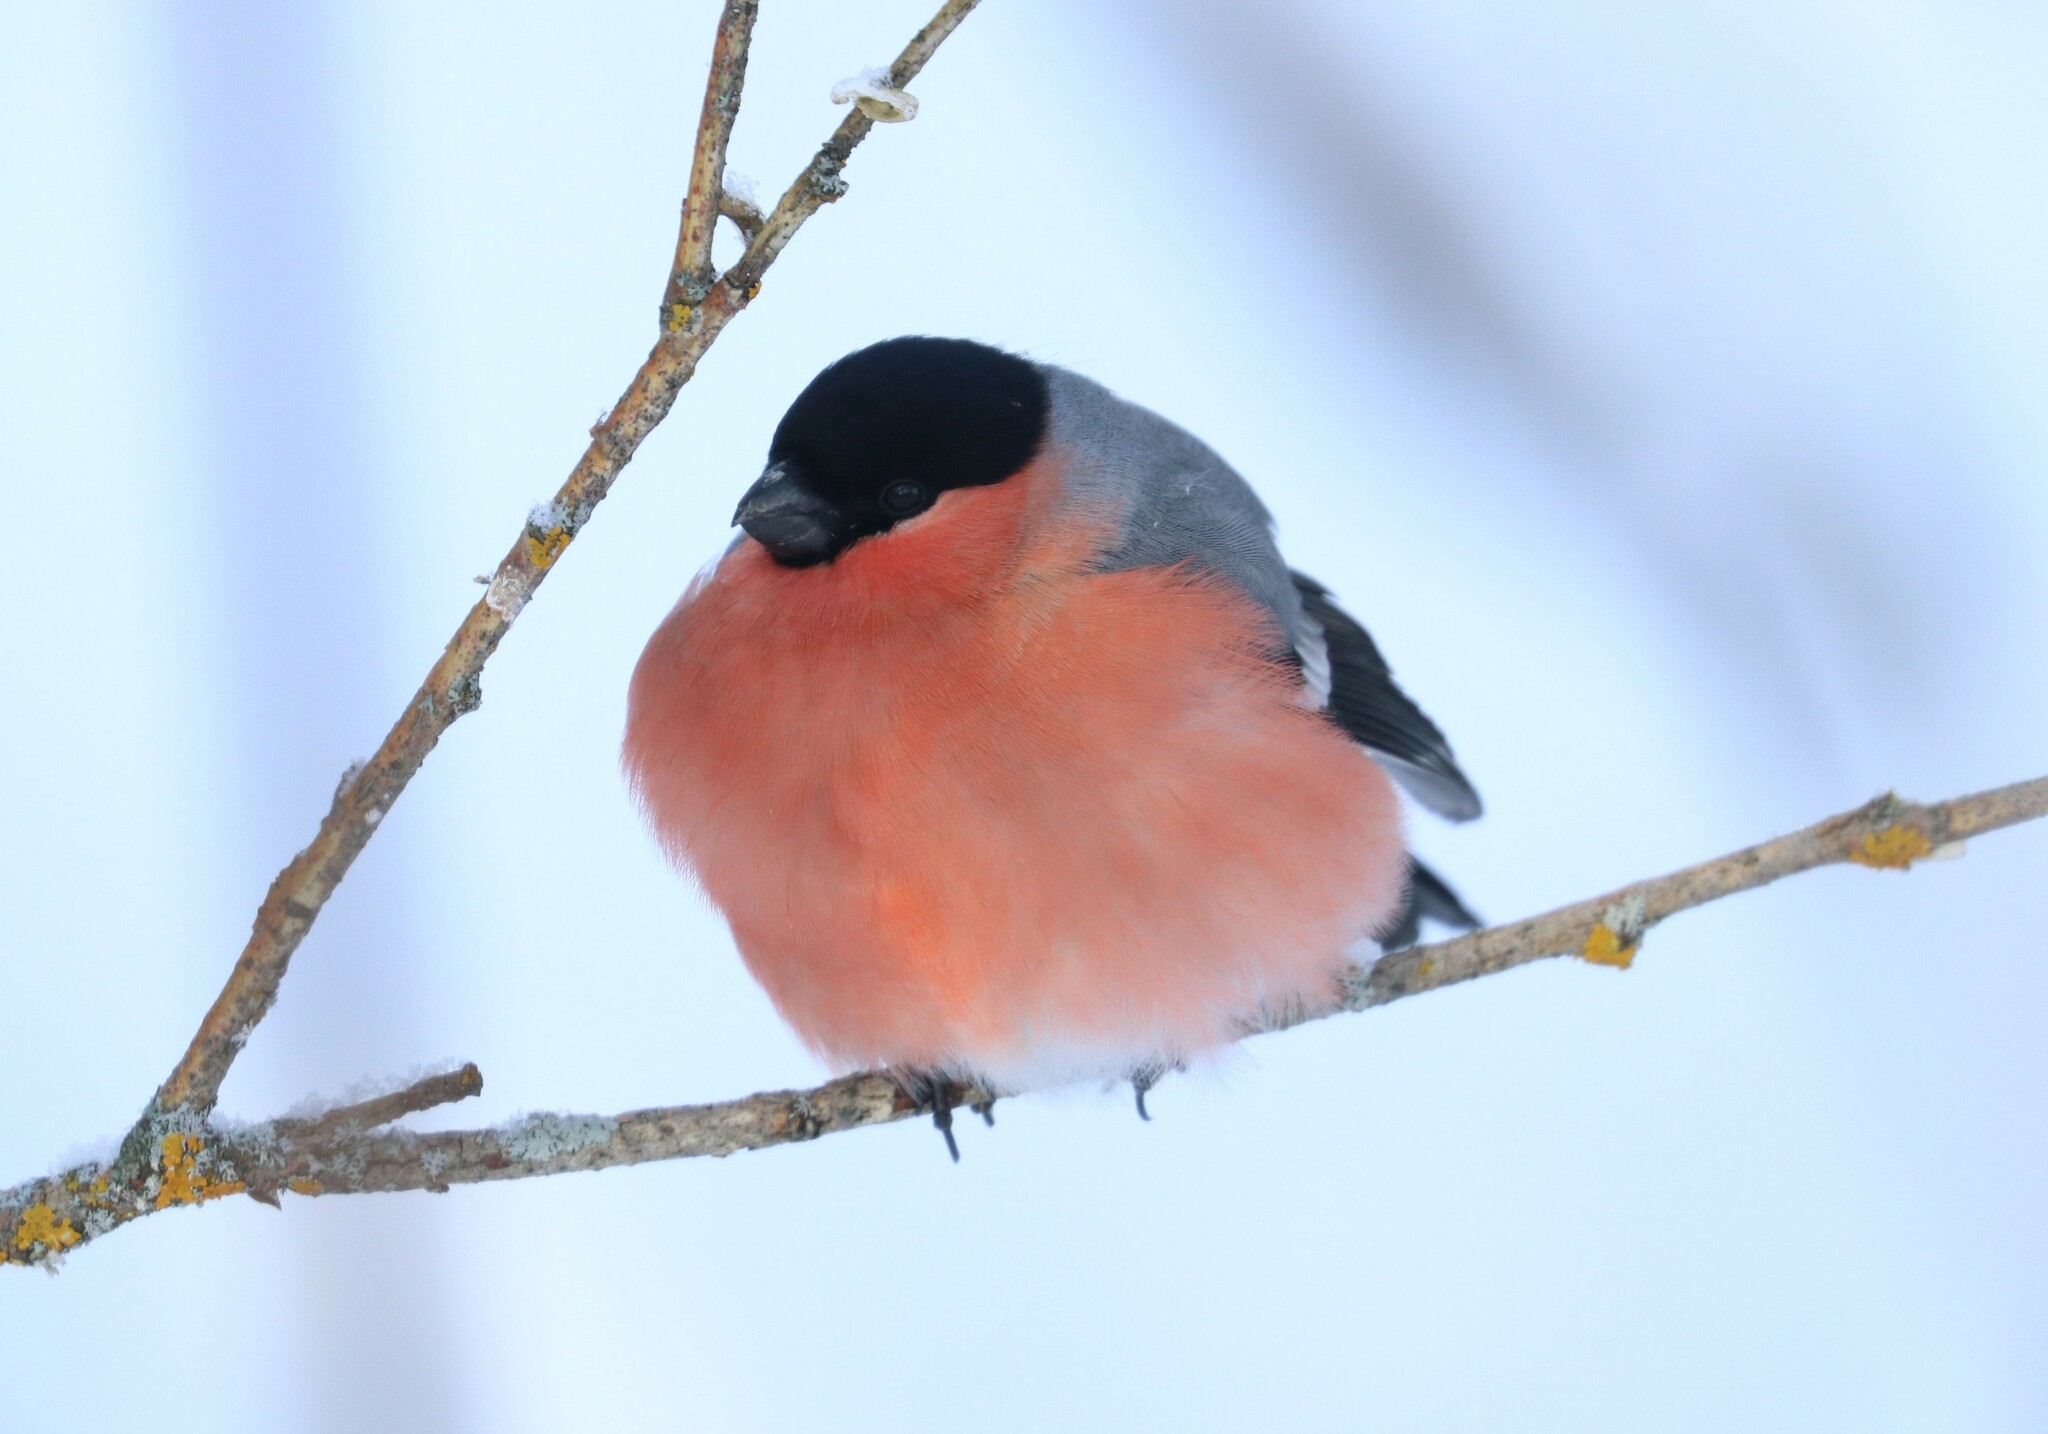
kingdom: Animalia
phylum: Chordata
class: Aves
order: Passeriformes
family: Fringillidae
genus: Pyrrhula
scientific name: Pyrrhula pyrrhula
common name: Eurasian bullfinch
